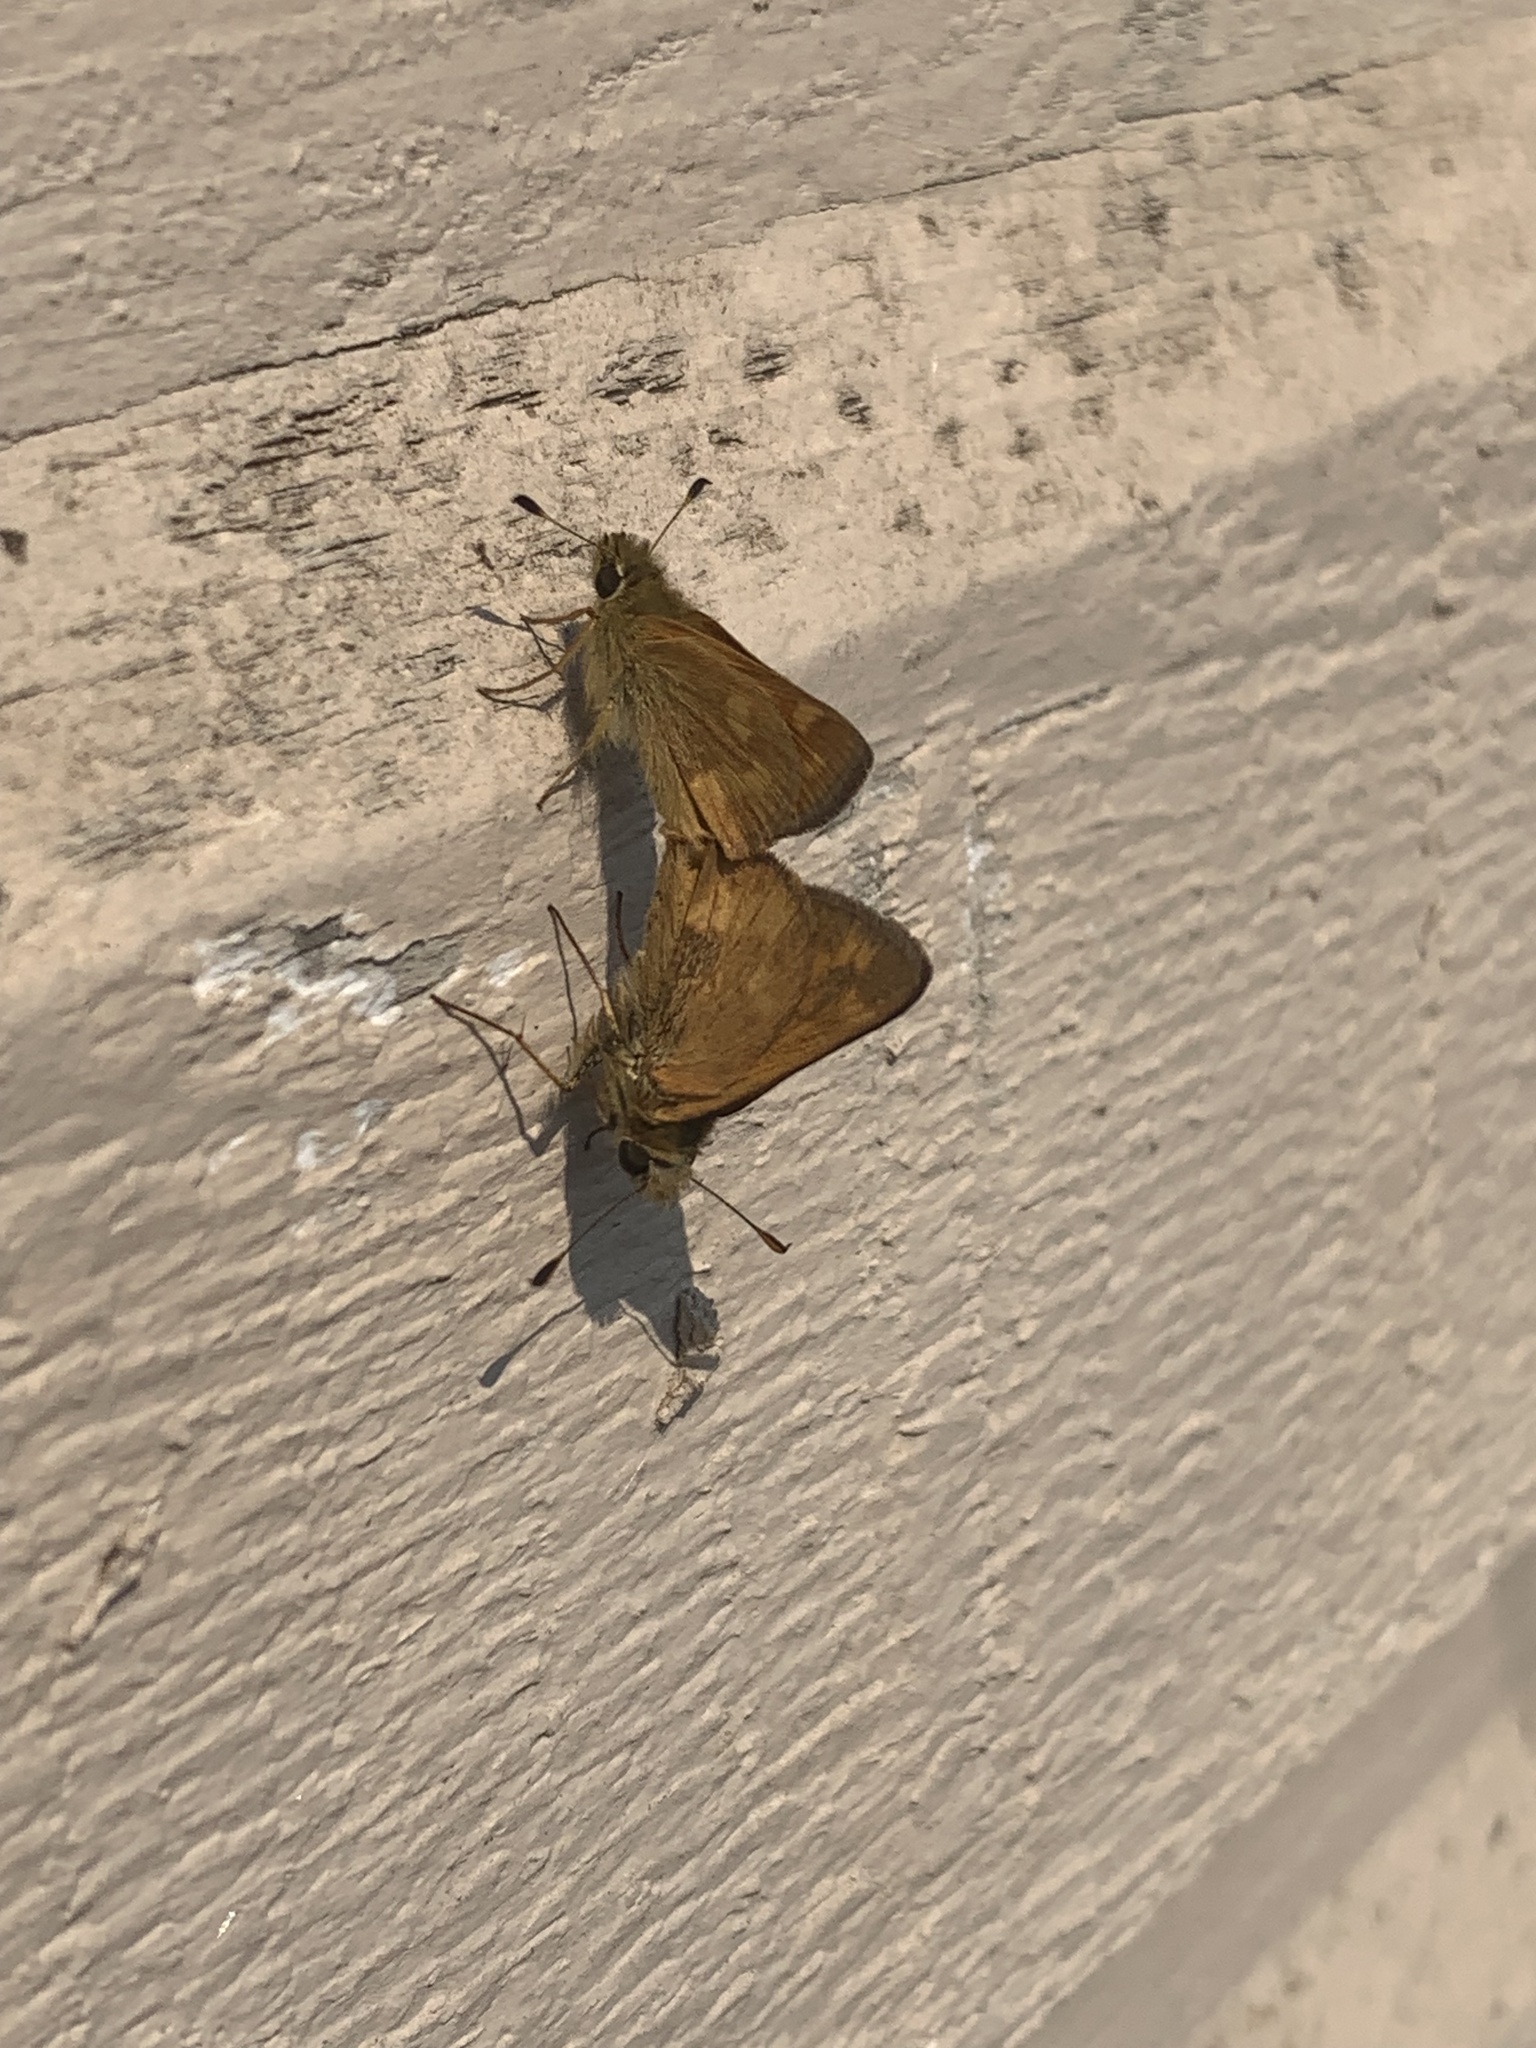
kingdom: Animalia
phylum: Arthropoda
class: Insecta
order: Lepidoptera
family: Hesperiidae
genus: Ochlodes
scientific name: Ochlodes sylvanoides
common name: Woodland skipper
